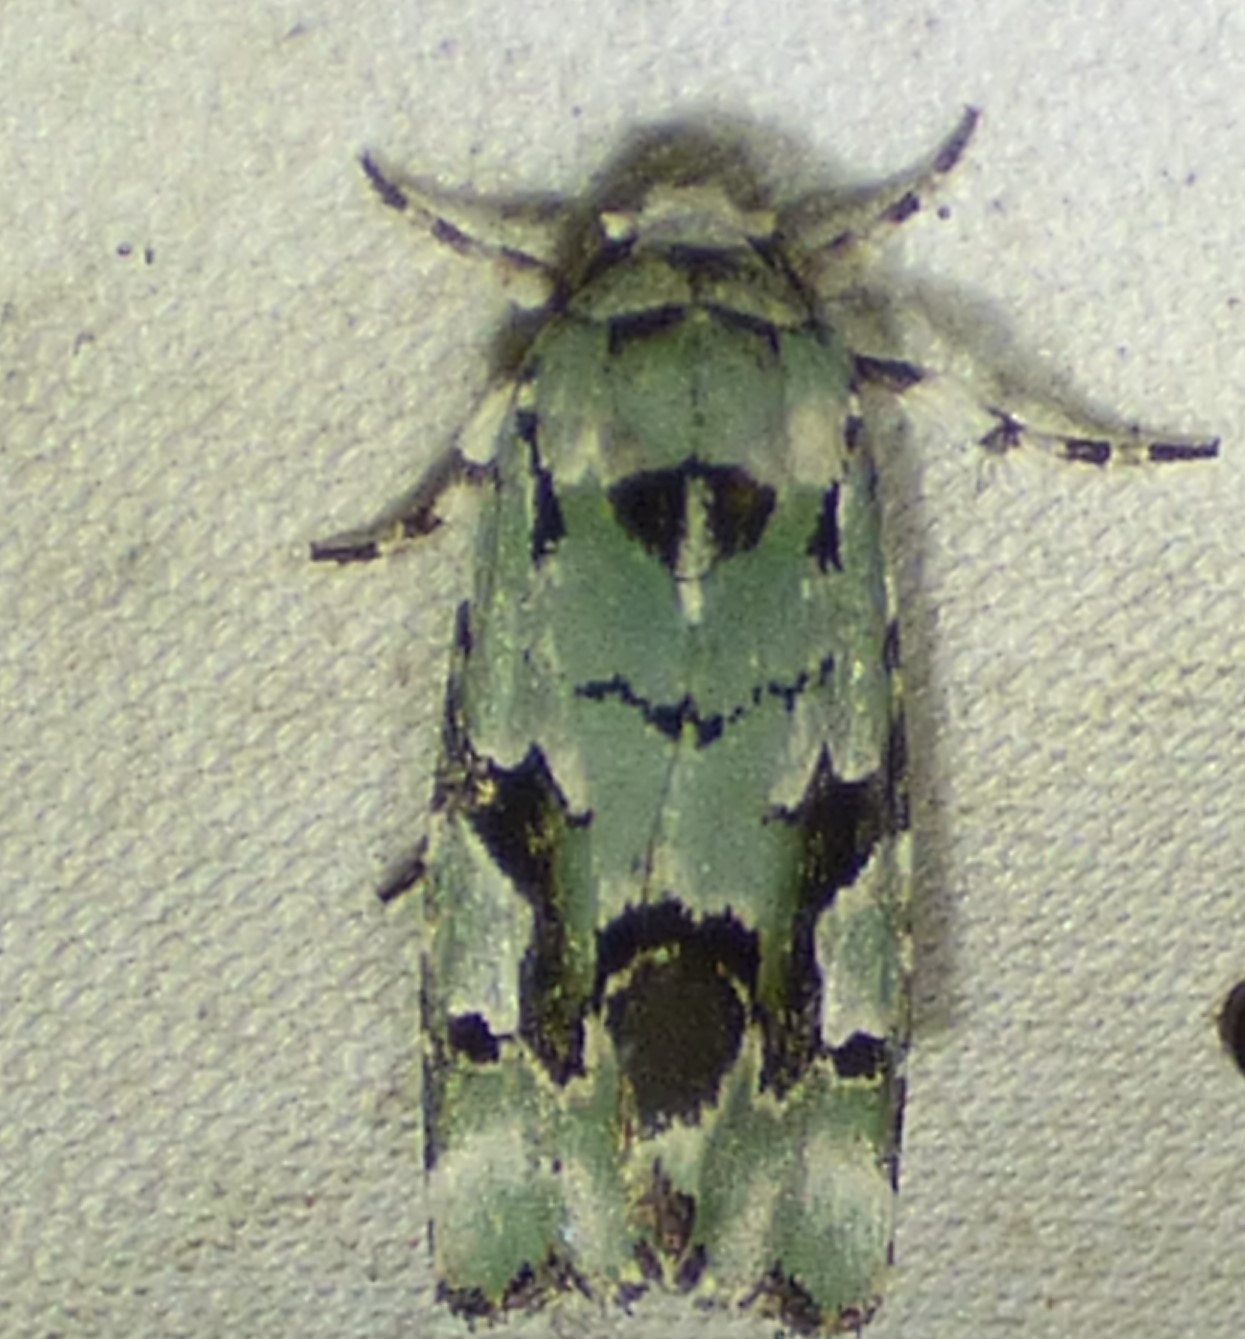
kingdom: Animalia
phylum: Arthropoda
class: Insecta
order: Lepidoptera
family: Noctuidae
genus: Emarginea
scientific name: Emarginea percara
